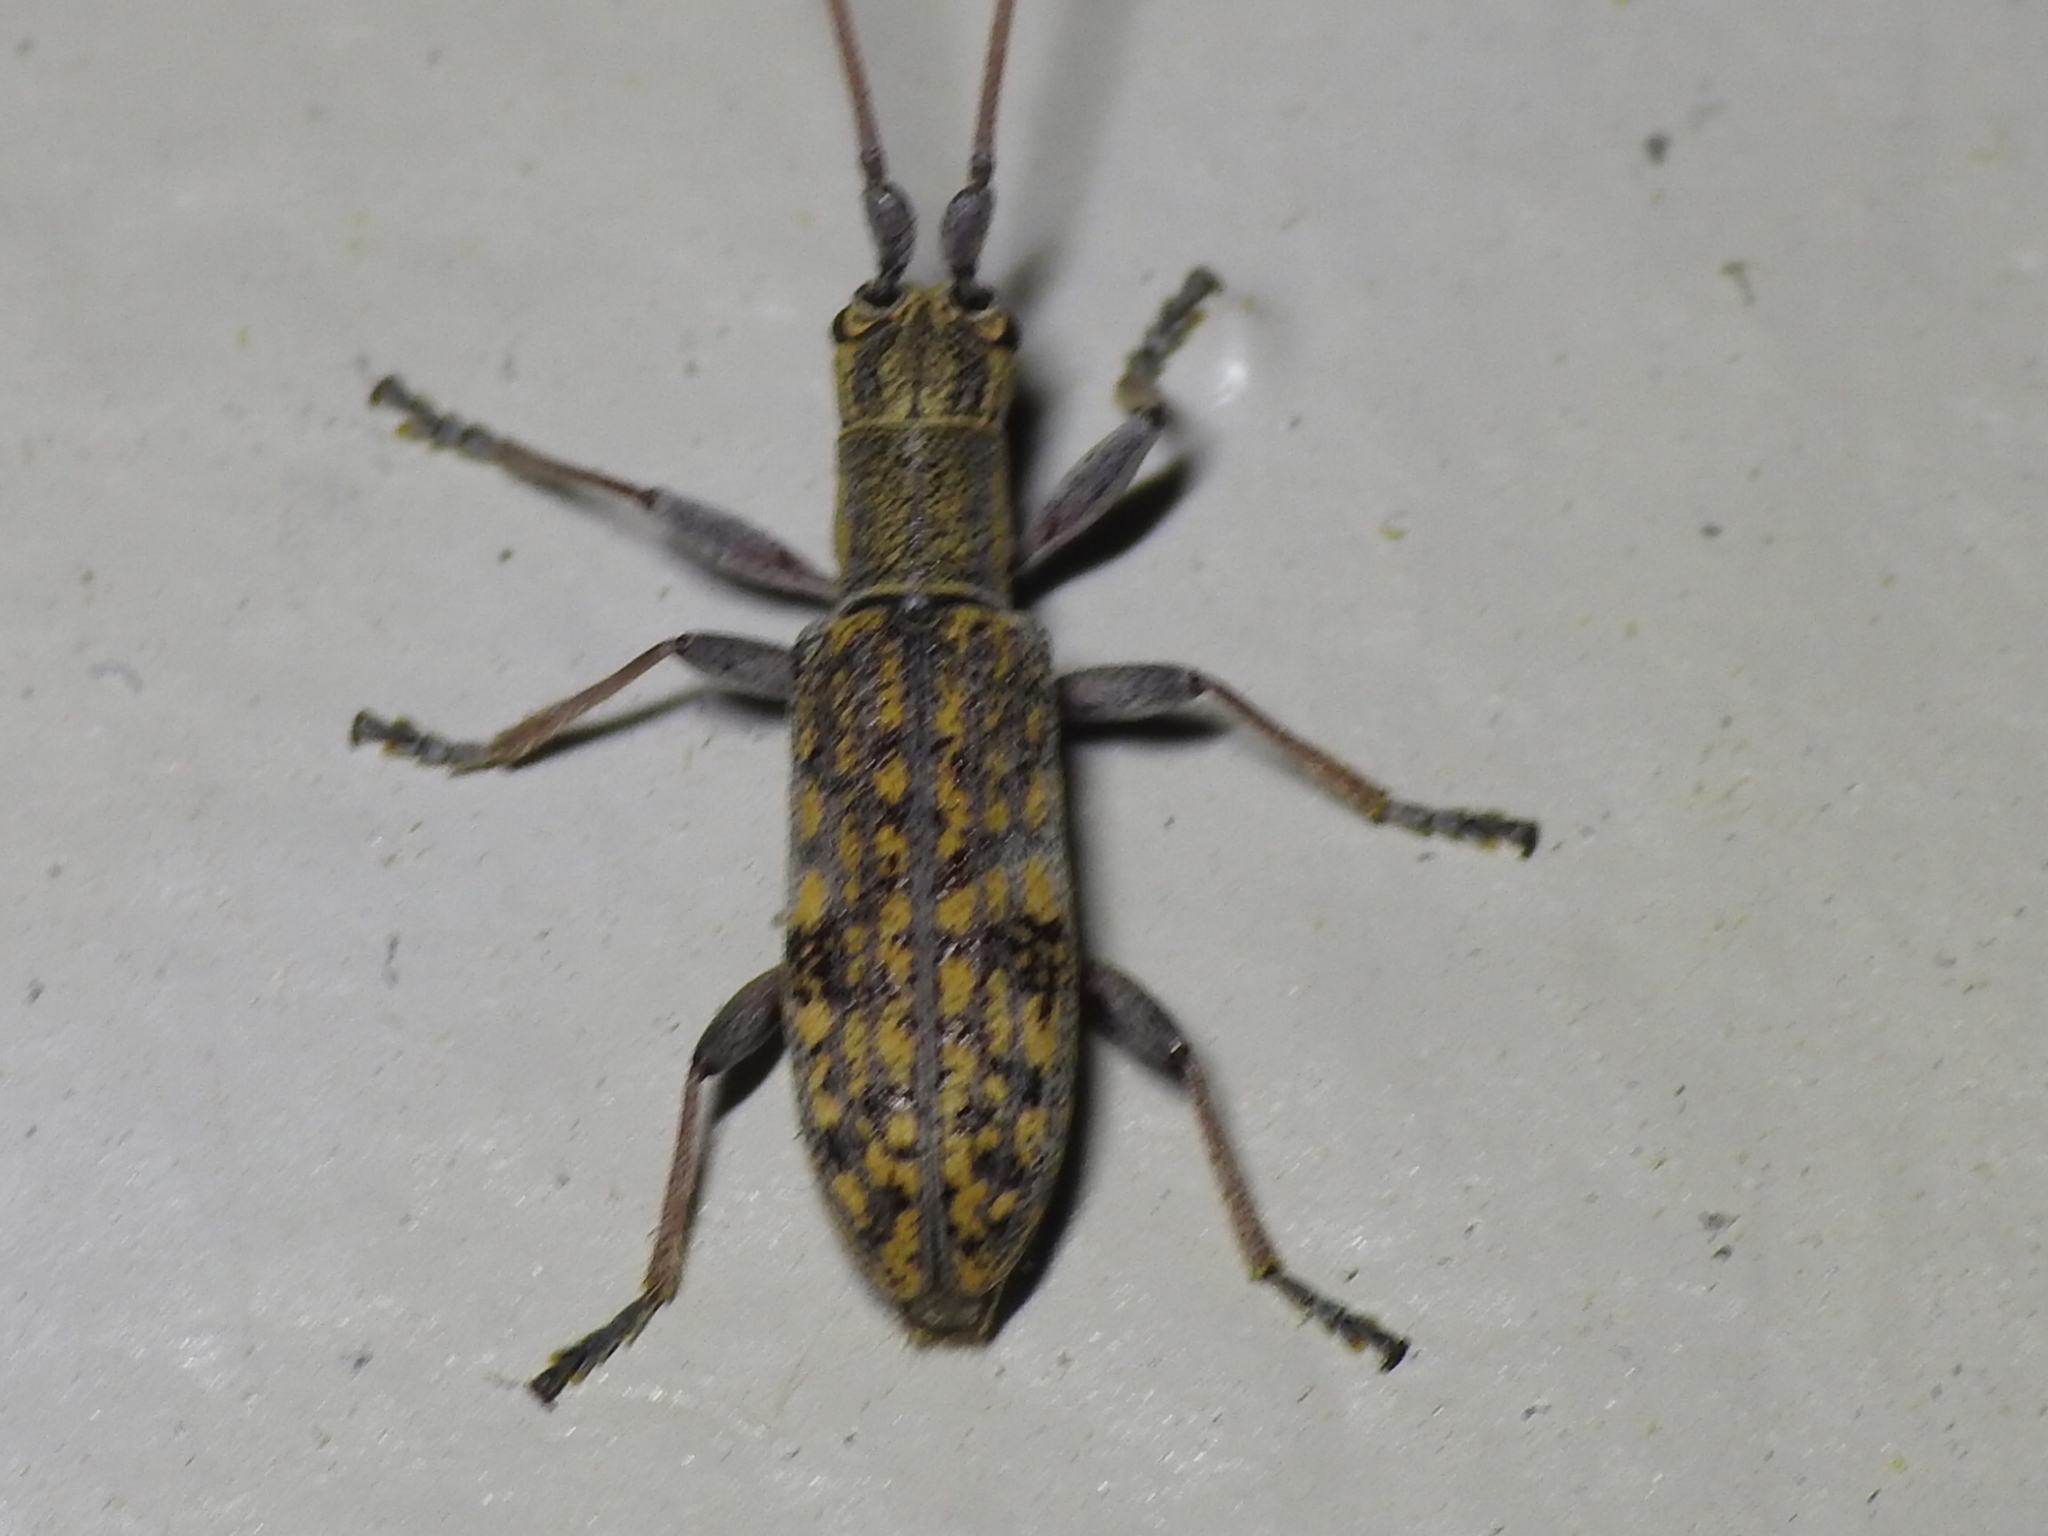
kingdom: Animalia
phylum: Arthropoda
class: Insecta
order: Coleoptera
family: Cerambycidae
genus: Dorcaschema
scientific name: Dorcaschema alternatum
